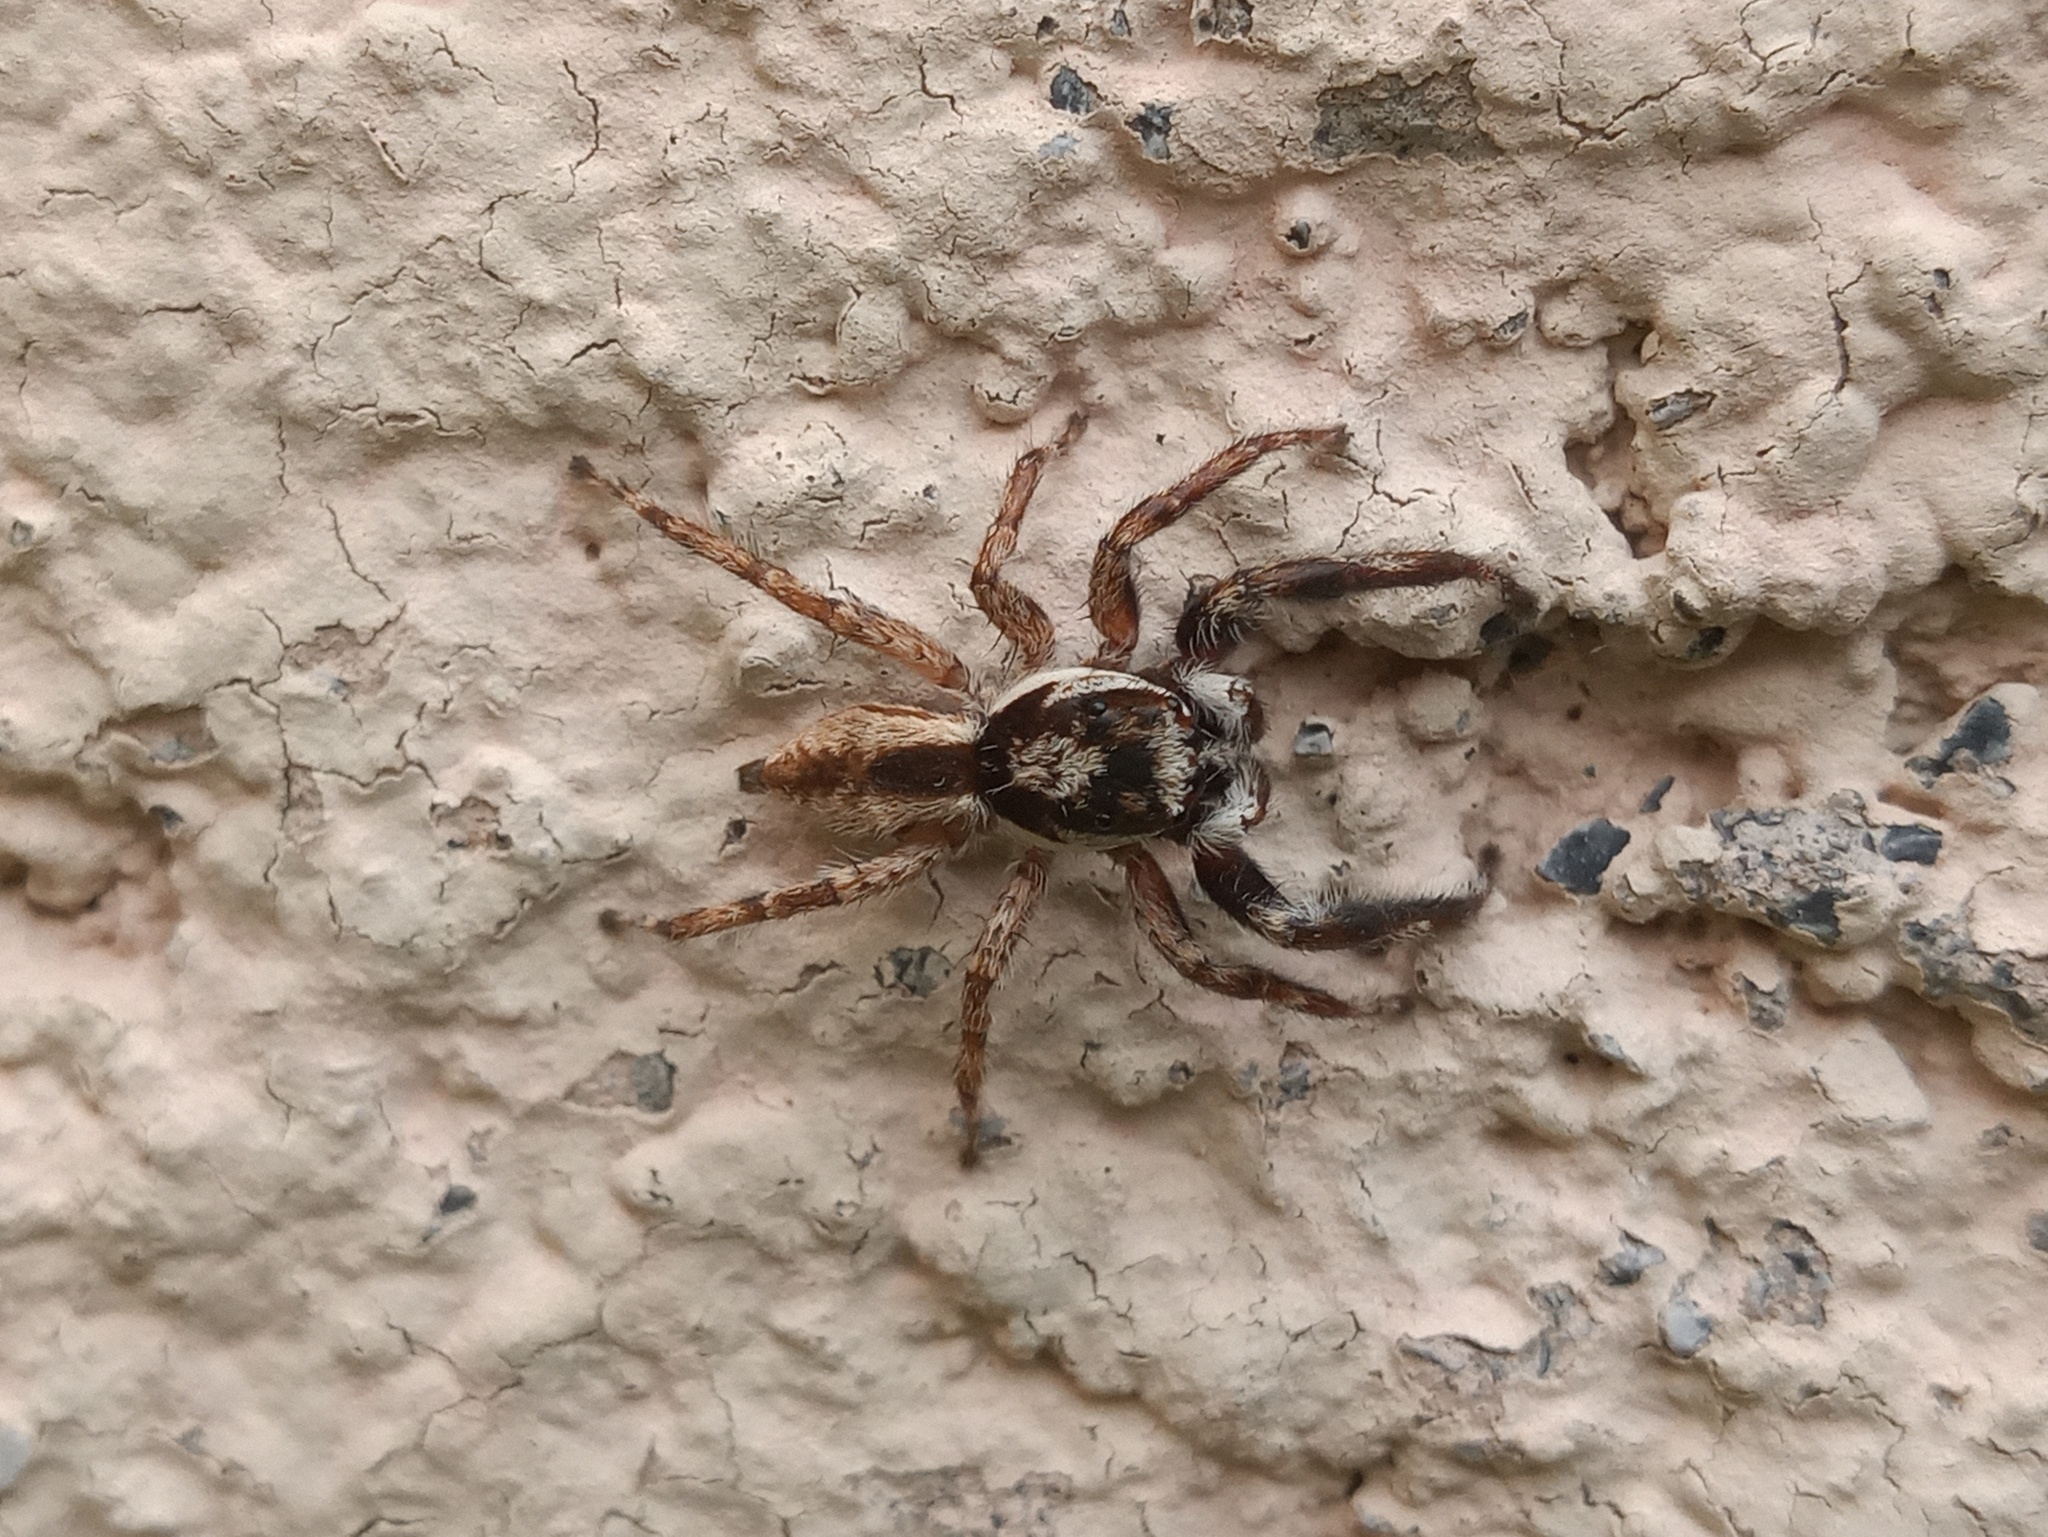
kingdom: Animalia
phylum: Arthropoda
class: Arachnida
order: Araneae
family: Salticidae
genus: Menemerus
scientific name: Menemerus bivittatus
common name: Gray wall jumper
